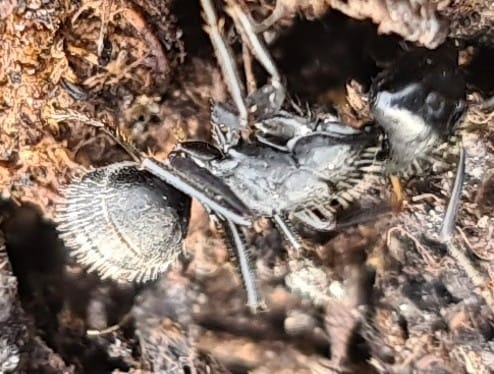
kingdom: Animalia
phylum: Arthropoda
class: Insecta
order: Hymenoptera
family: Formicidae
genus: Camponotus
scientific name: Camponotus vagus
